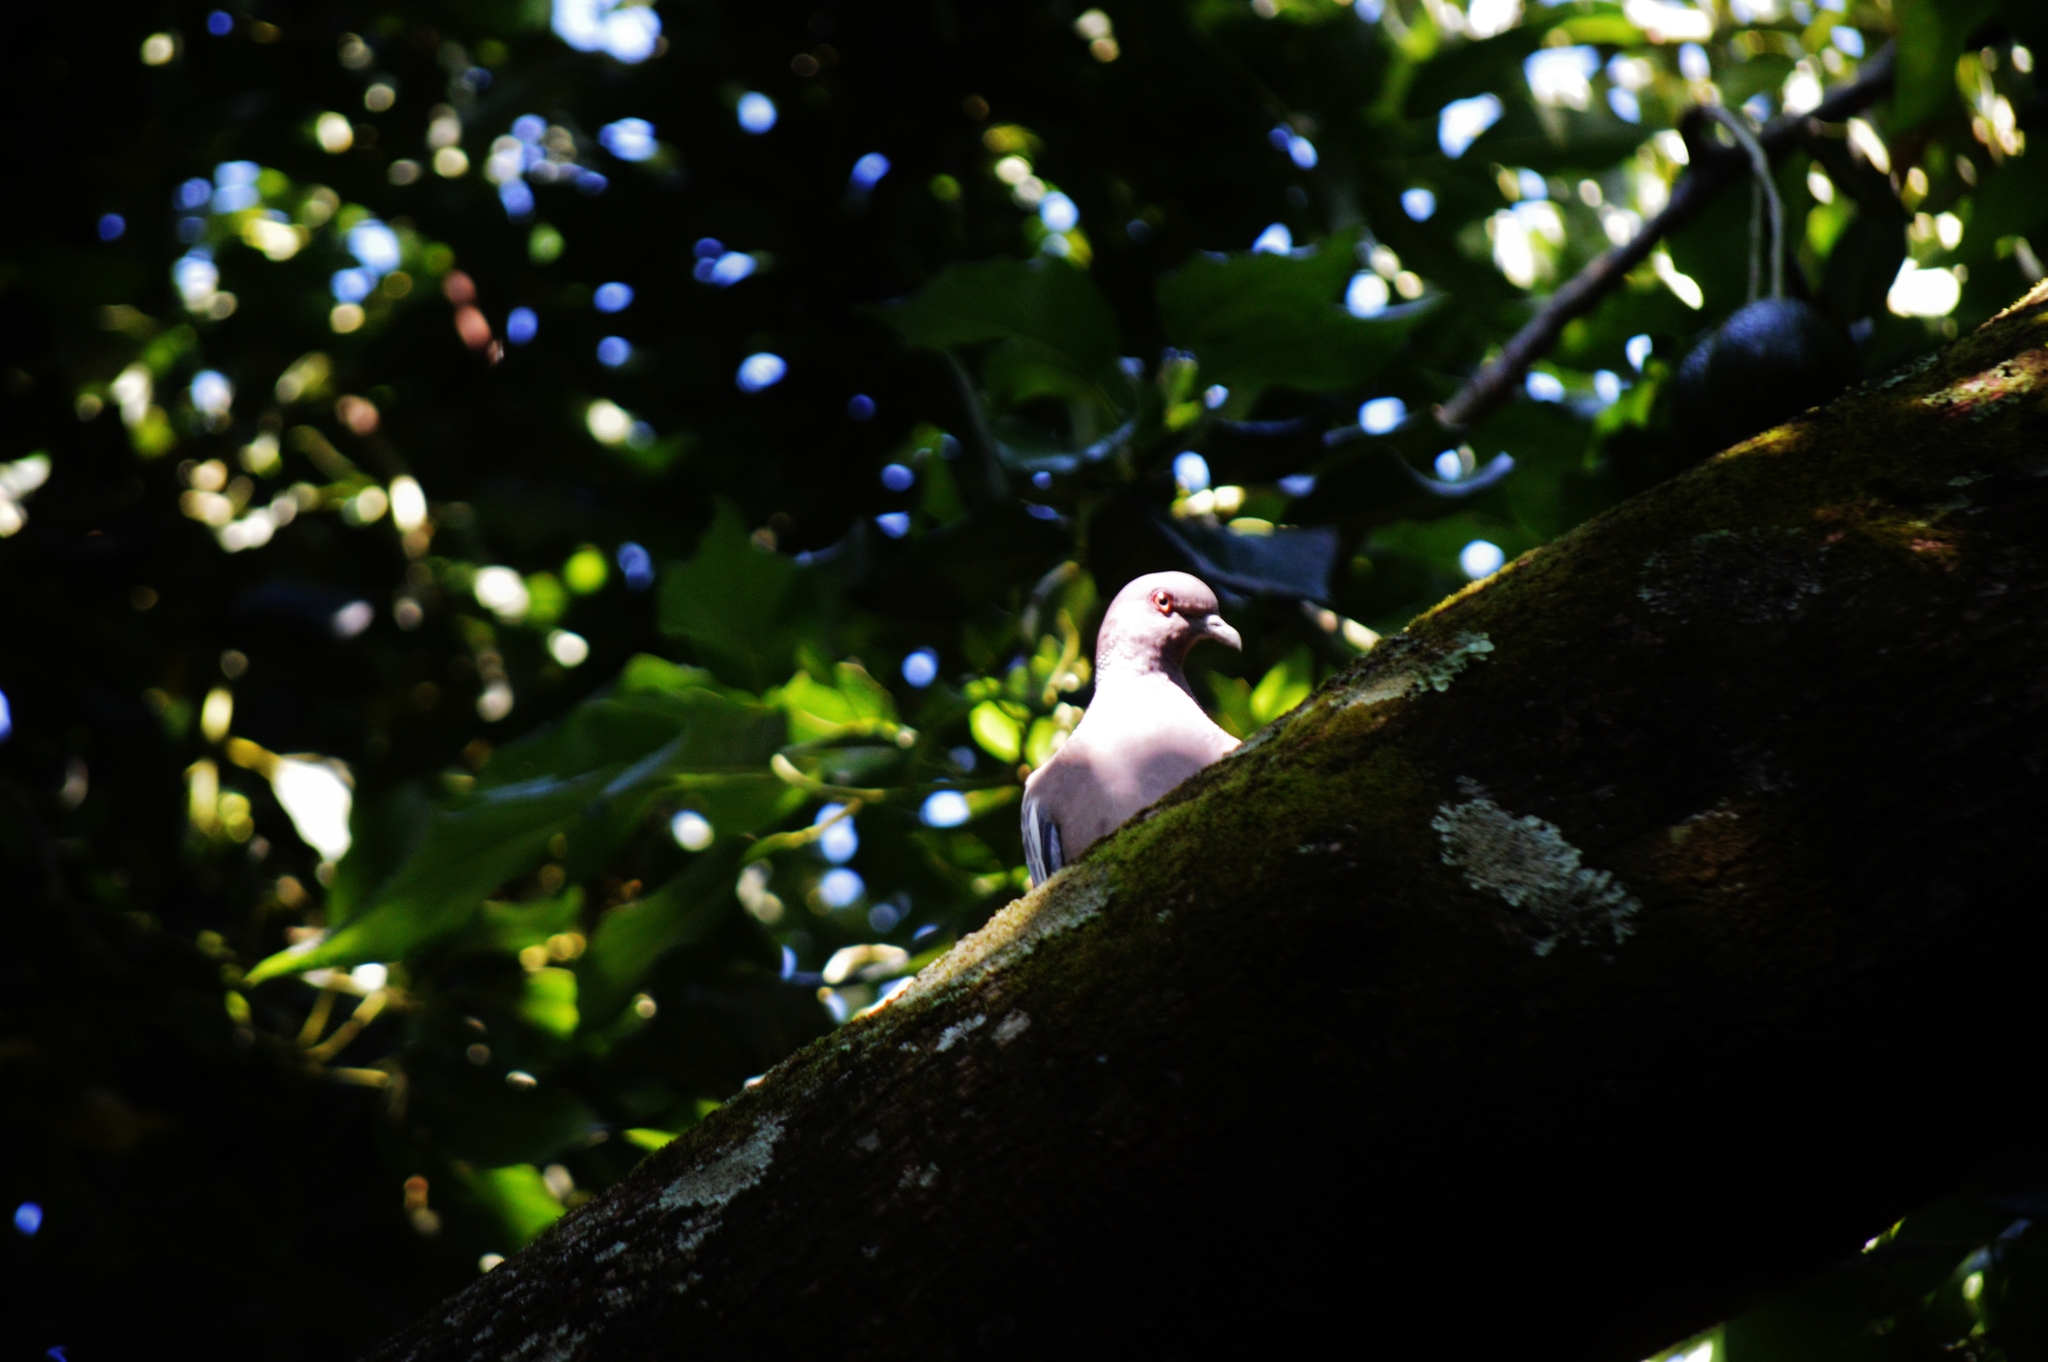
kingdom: Animalia
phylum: Chordata
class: Aves
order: Columbiformes
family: Columbidae
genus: Patagioenas
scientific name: Patagioenas picazuro
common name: Picazuro pigeon
